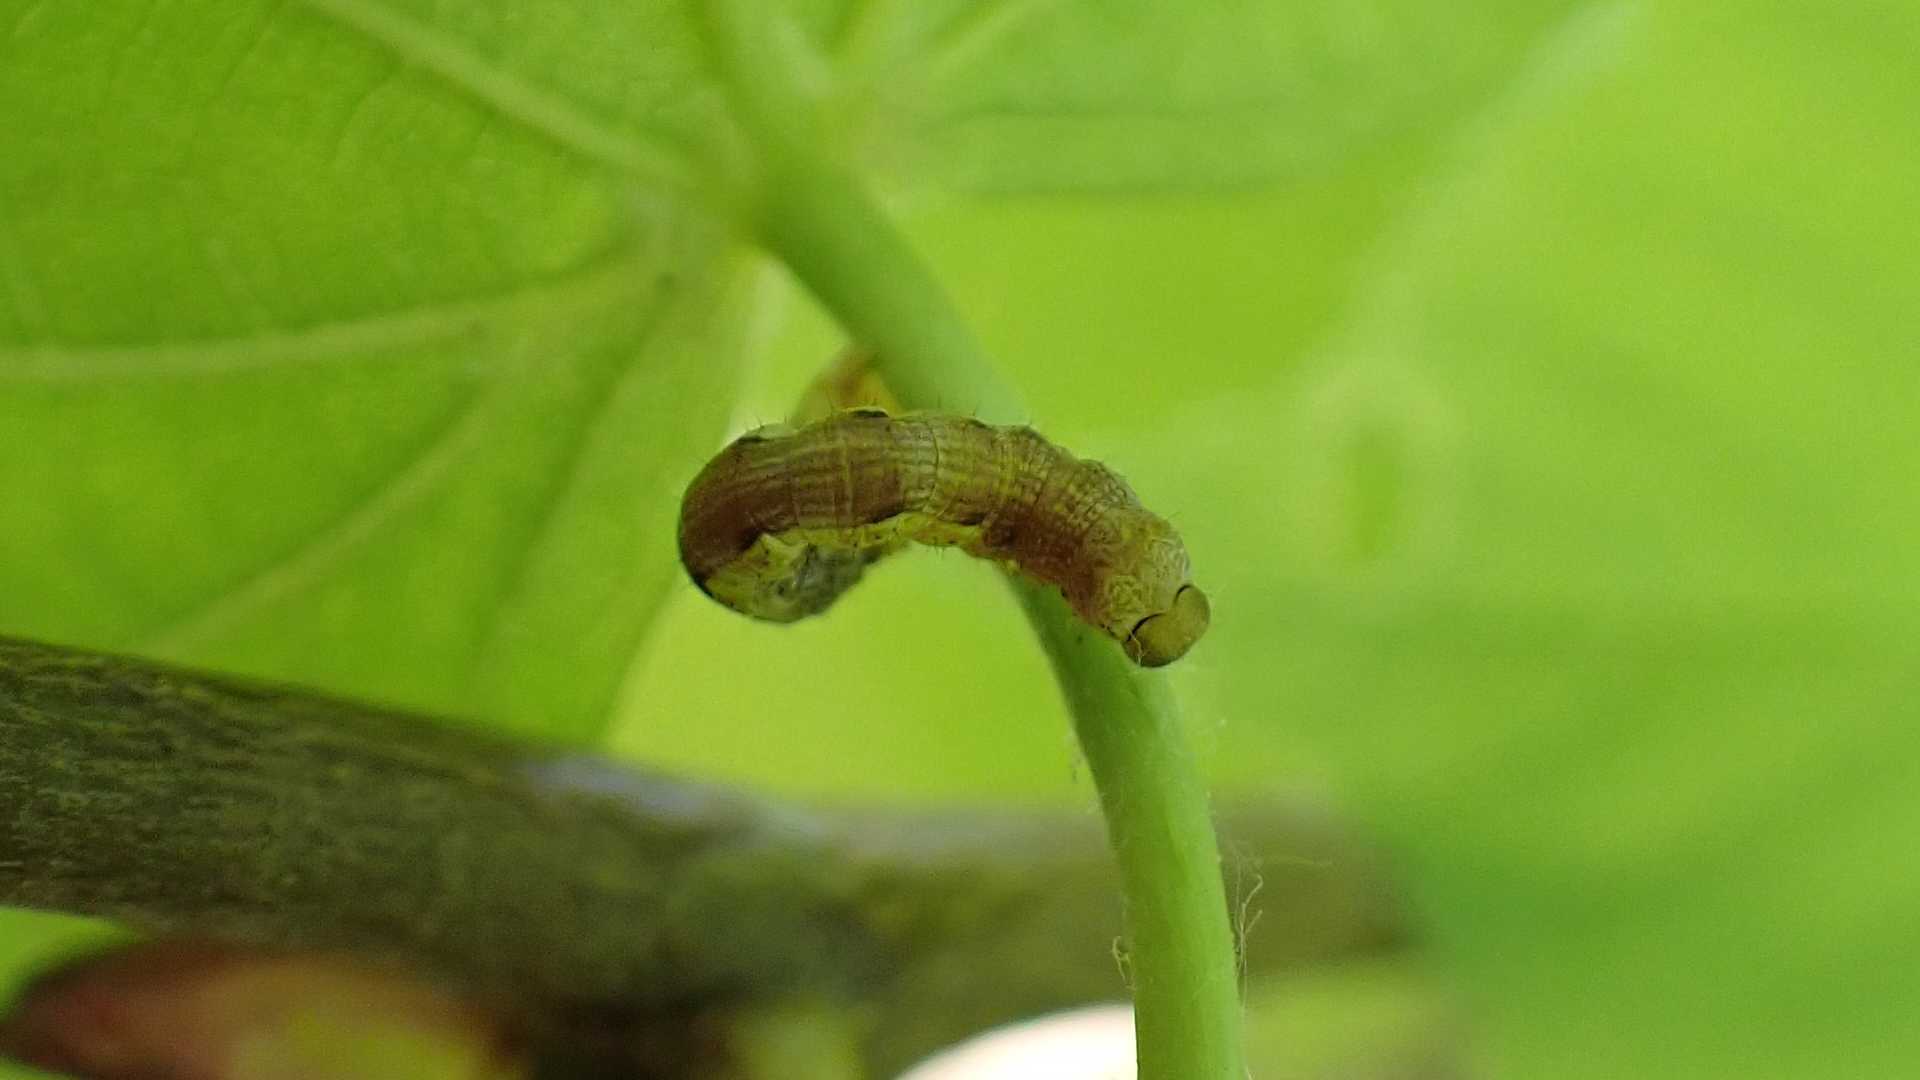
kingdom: Animalia
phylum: Arthropoda
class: Insecta
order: Lepidoptera
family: Geometridae
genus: Erannis
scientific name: Erannis defoliaria
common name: Mottled umber
